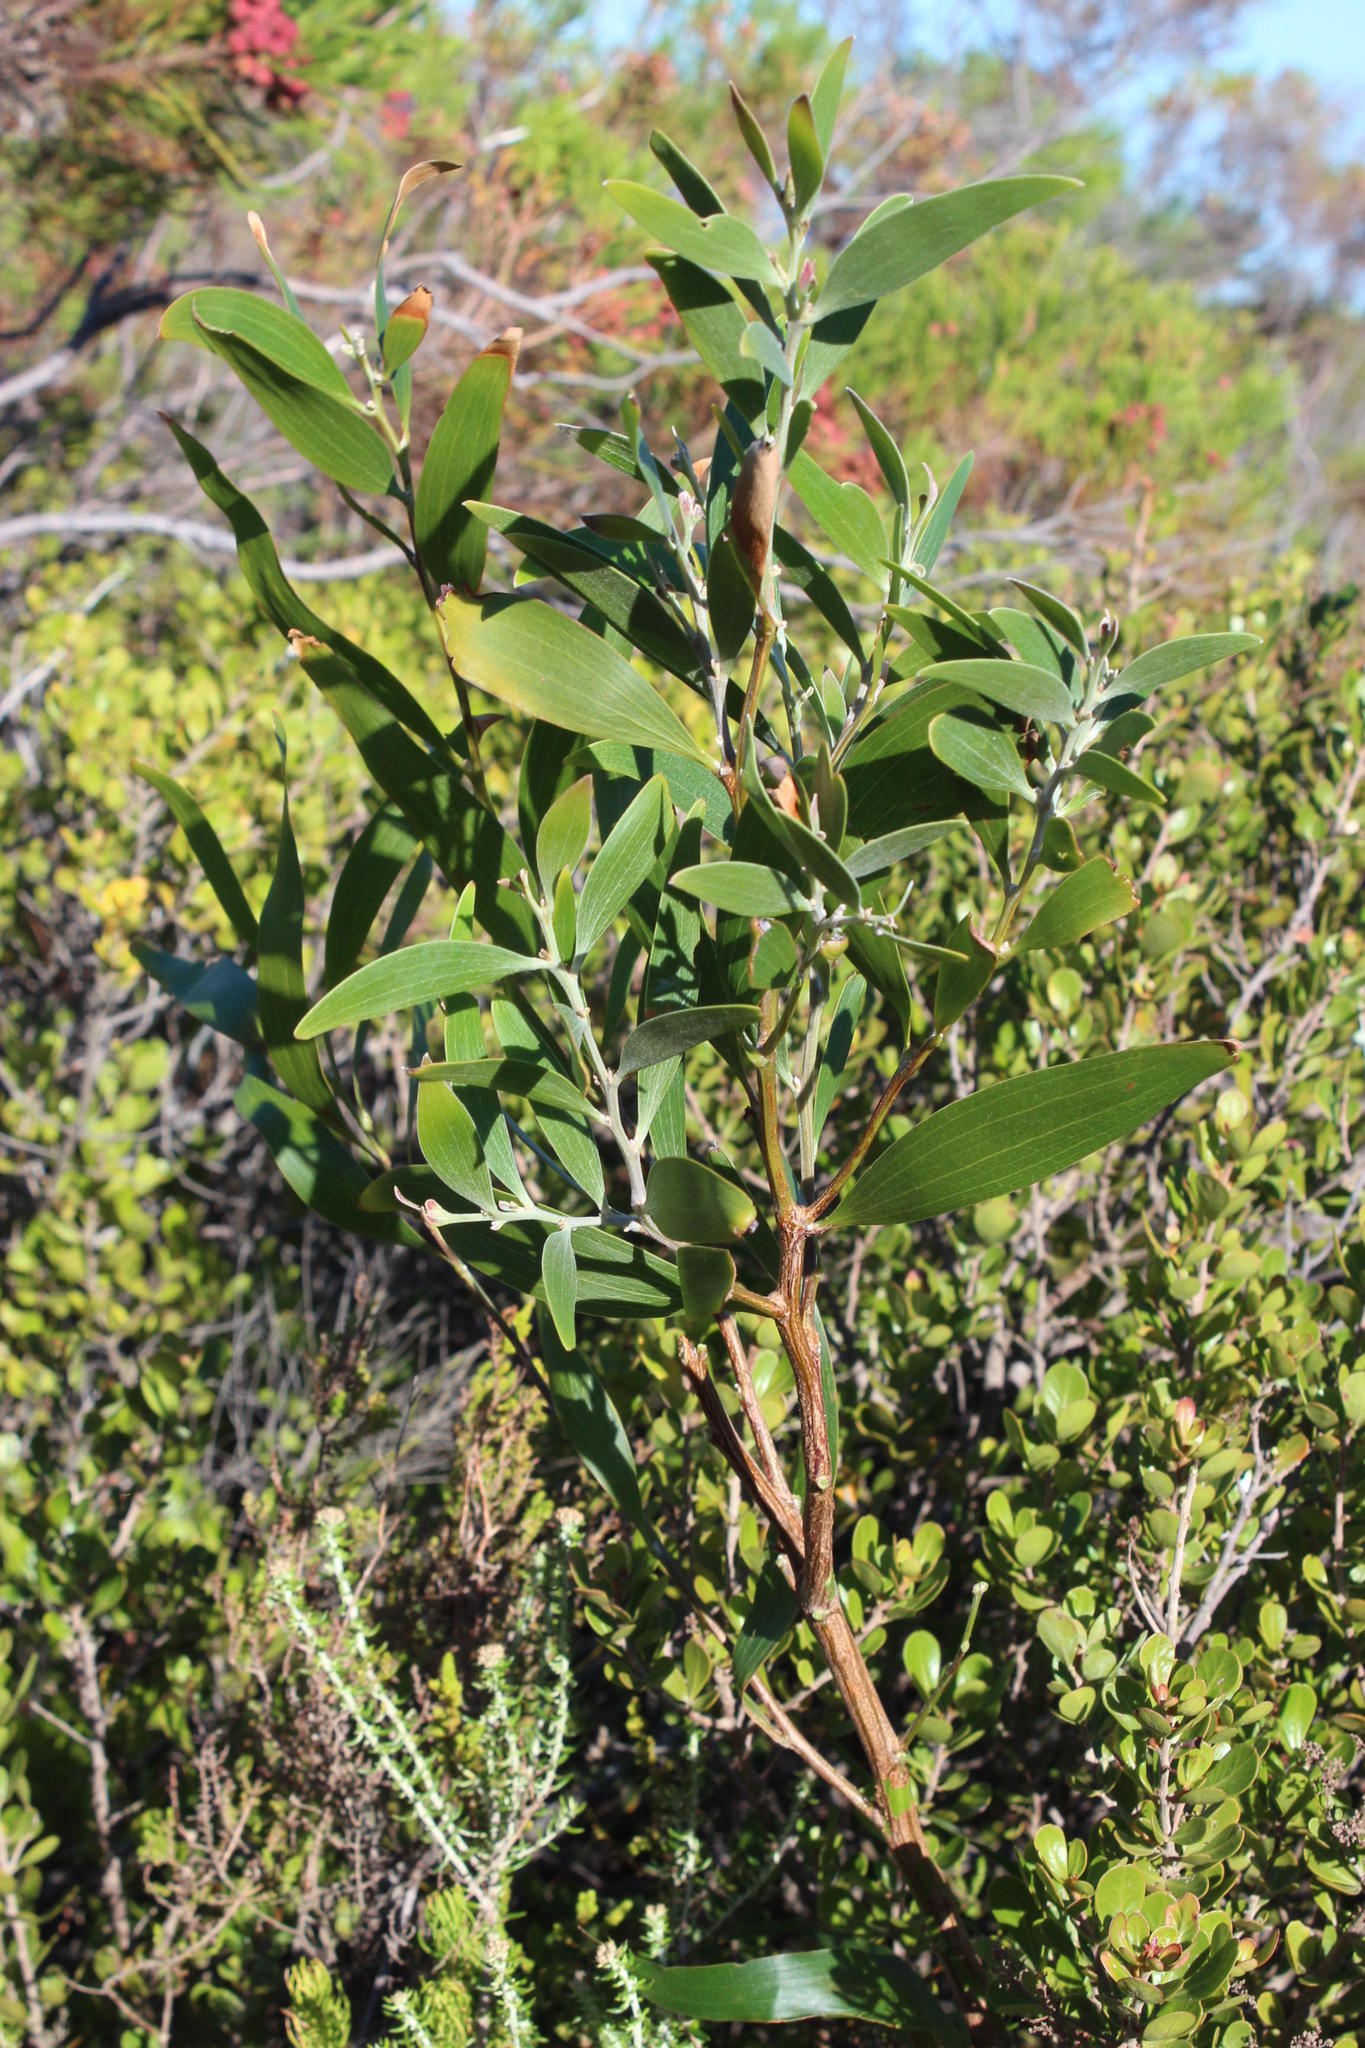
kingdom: Plantae
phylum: Tracheophyta
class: Magnoliopsida
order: Fabales
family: Fabaceae
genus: Acacia
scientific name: Acacia melanoxylon
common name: Blackwood
